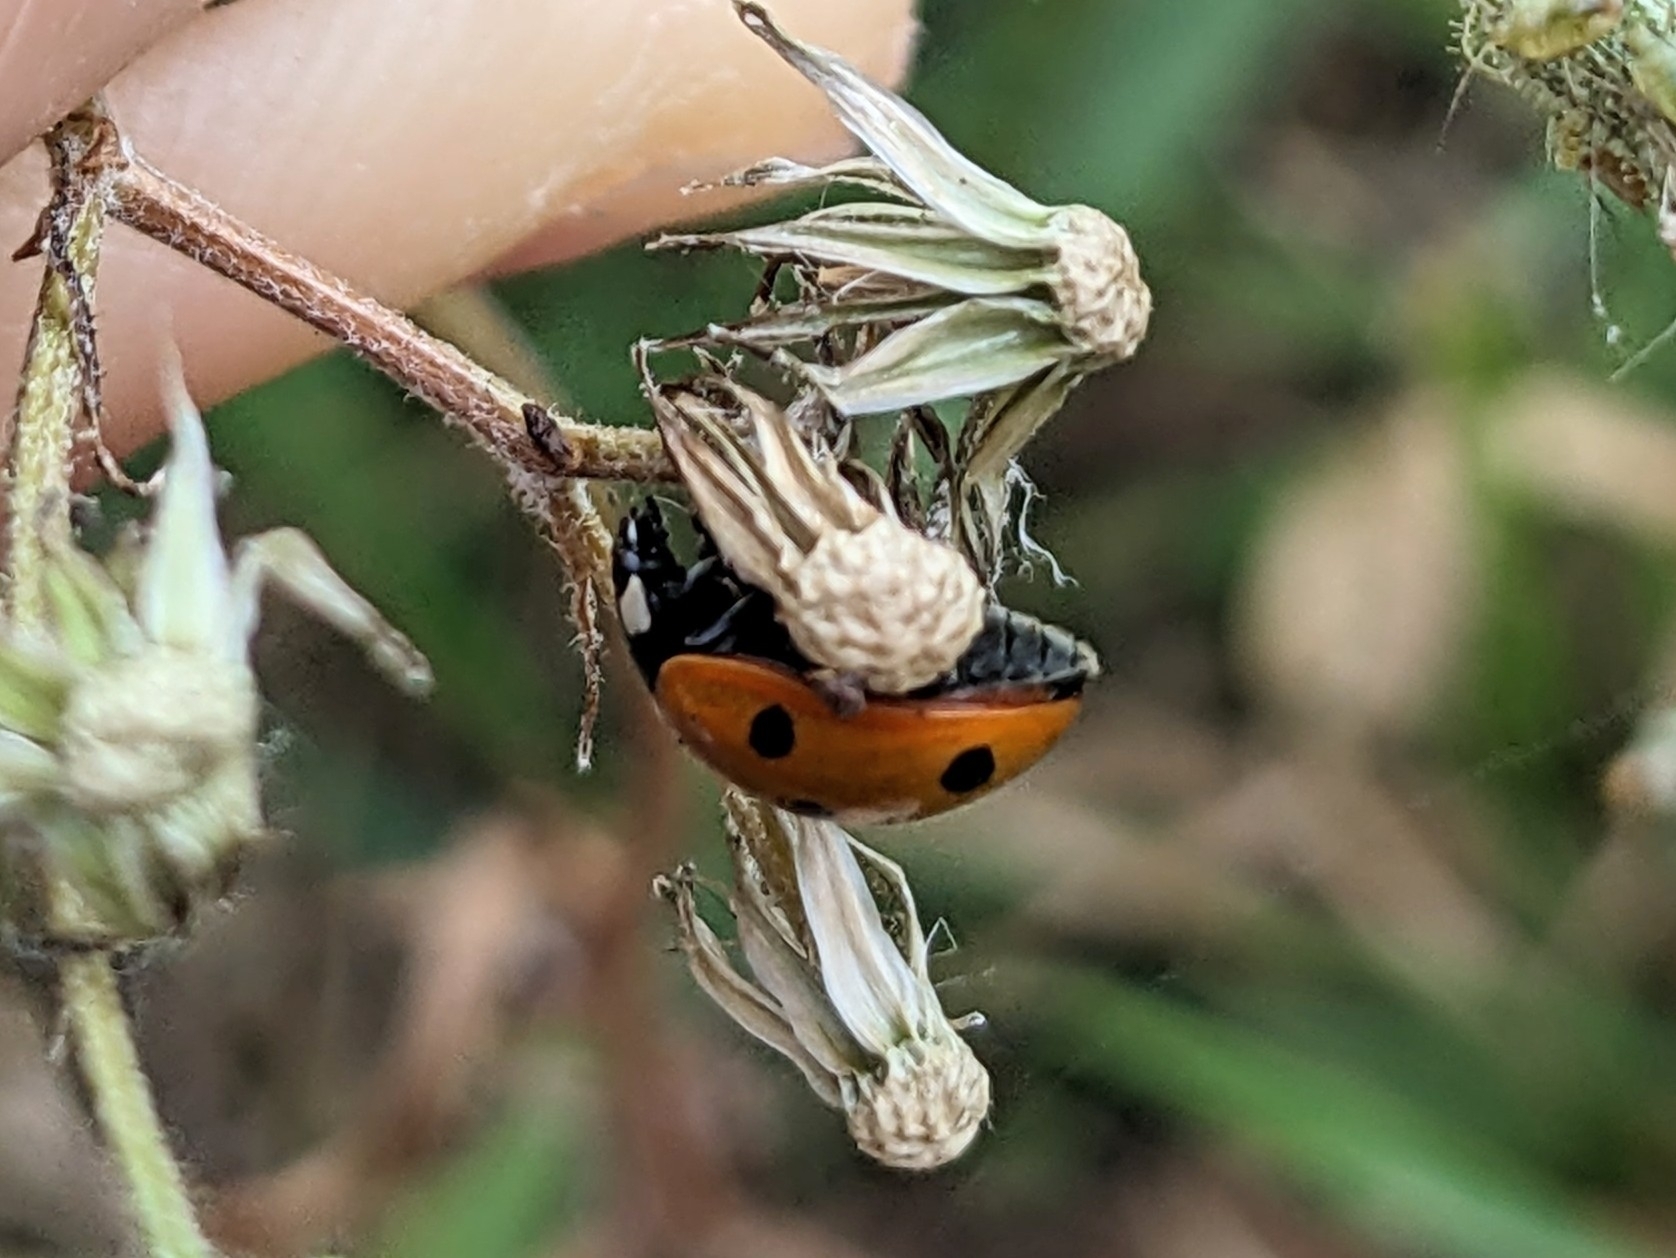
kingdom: Animalia
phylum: Arthropoda
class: Insecta
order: Coleoptera
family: Coccinellidae
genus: Coccinella
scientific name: Coccinella septempunctata
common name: Sevenspotted lady beetle
